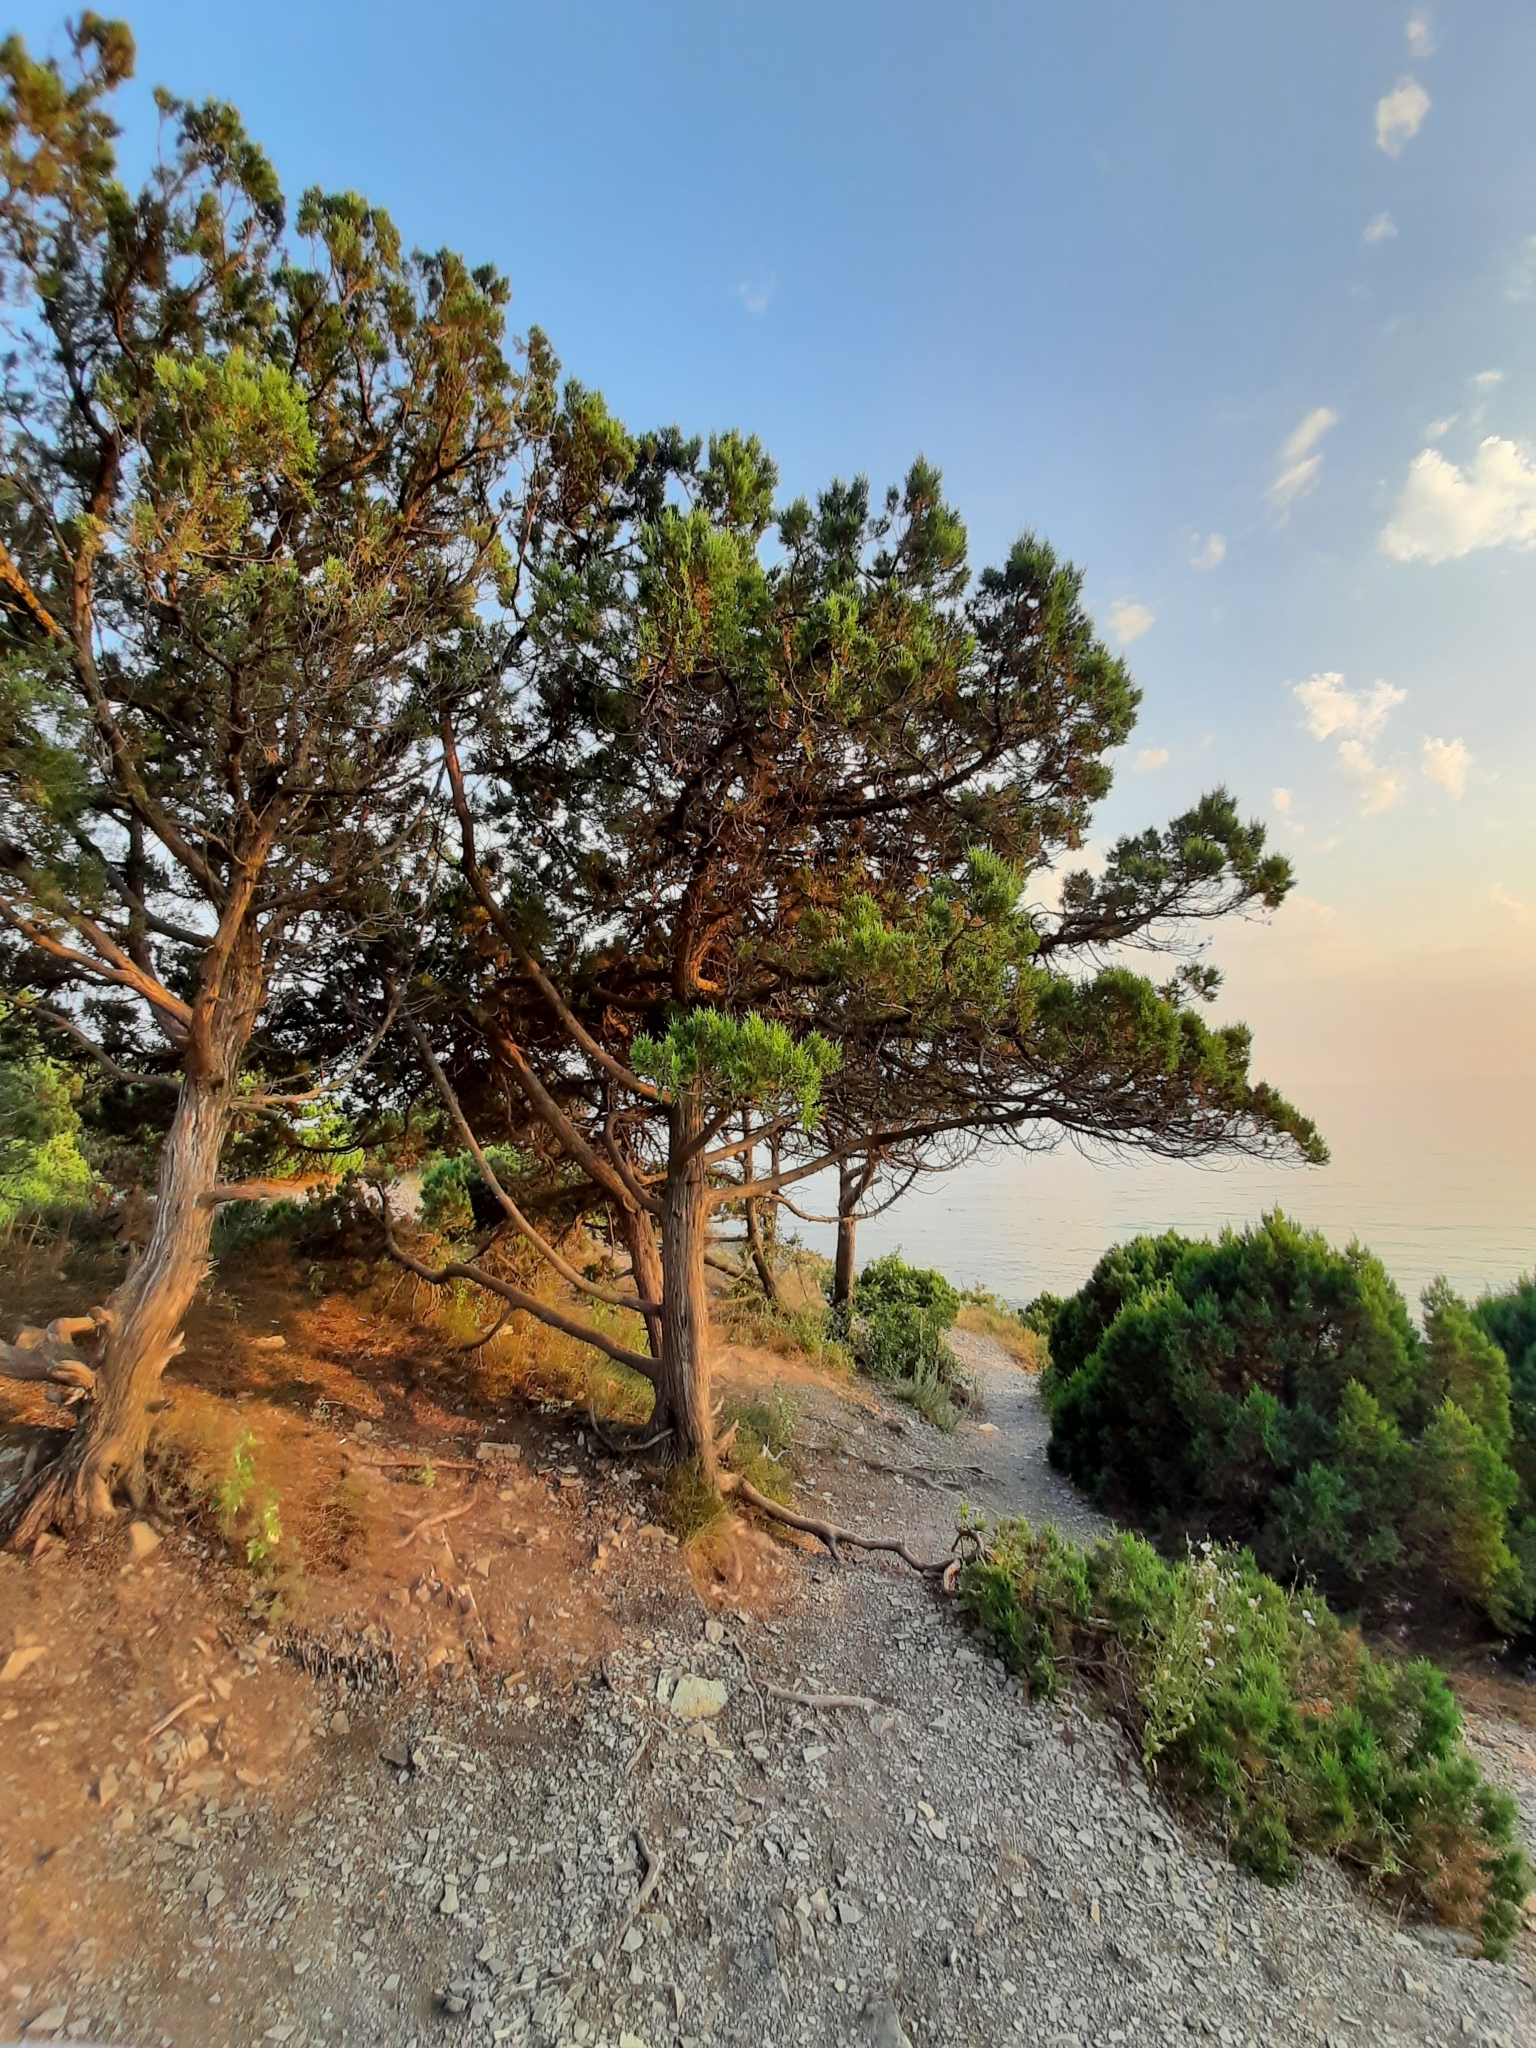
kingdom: Plantae
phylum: Tracheophyta
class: Pinopsida
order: Pinales
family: Cupressaceae
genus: Juniperus
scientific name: Juniperus excelsa
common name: Crimean juniper
